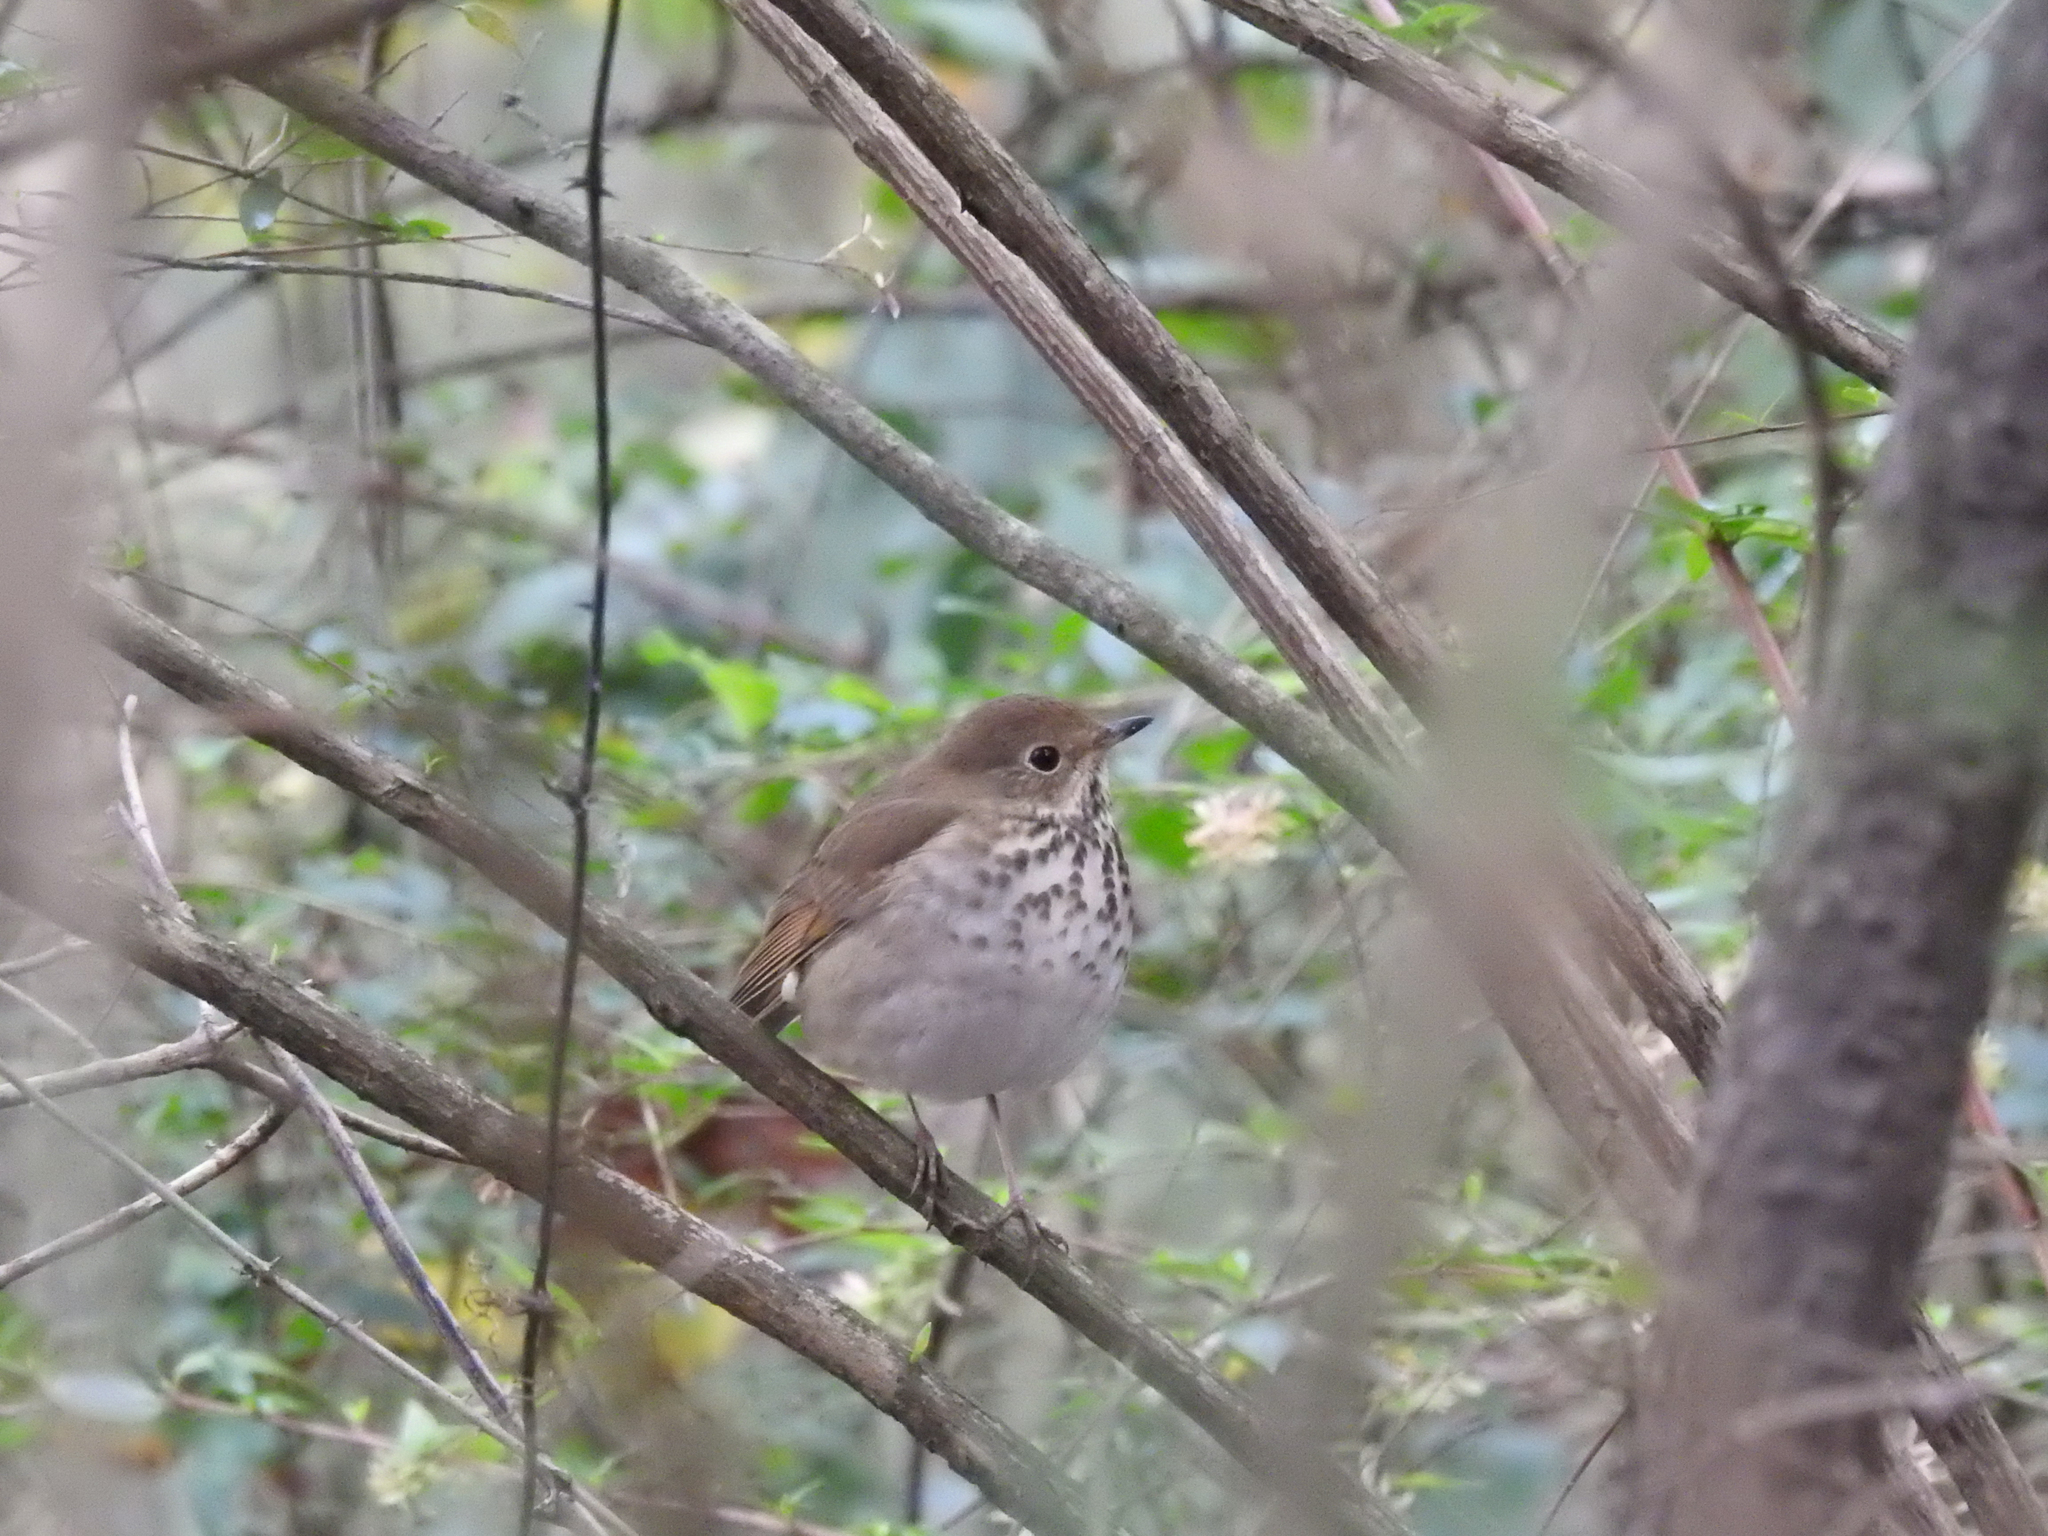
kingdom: Animalia
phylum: Chordata
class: Aves
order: Passeriformes
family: Turdidae
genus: Catharus
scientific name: Catharus guttatus
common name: Hermit thrush
